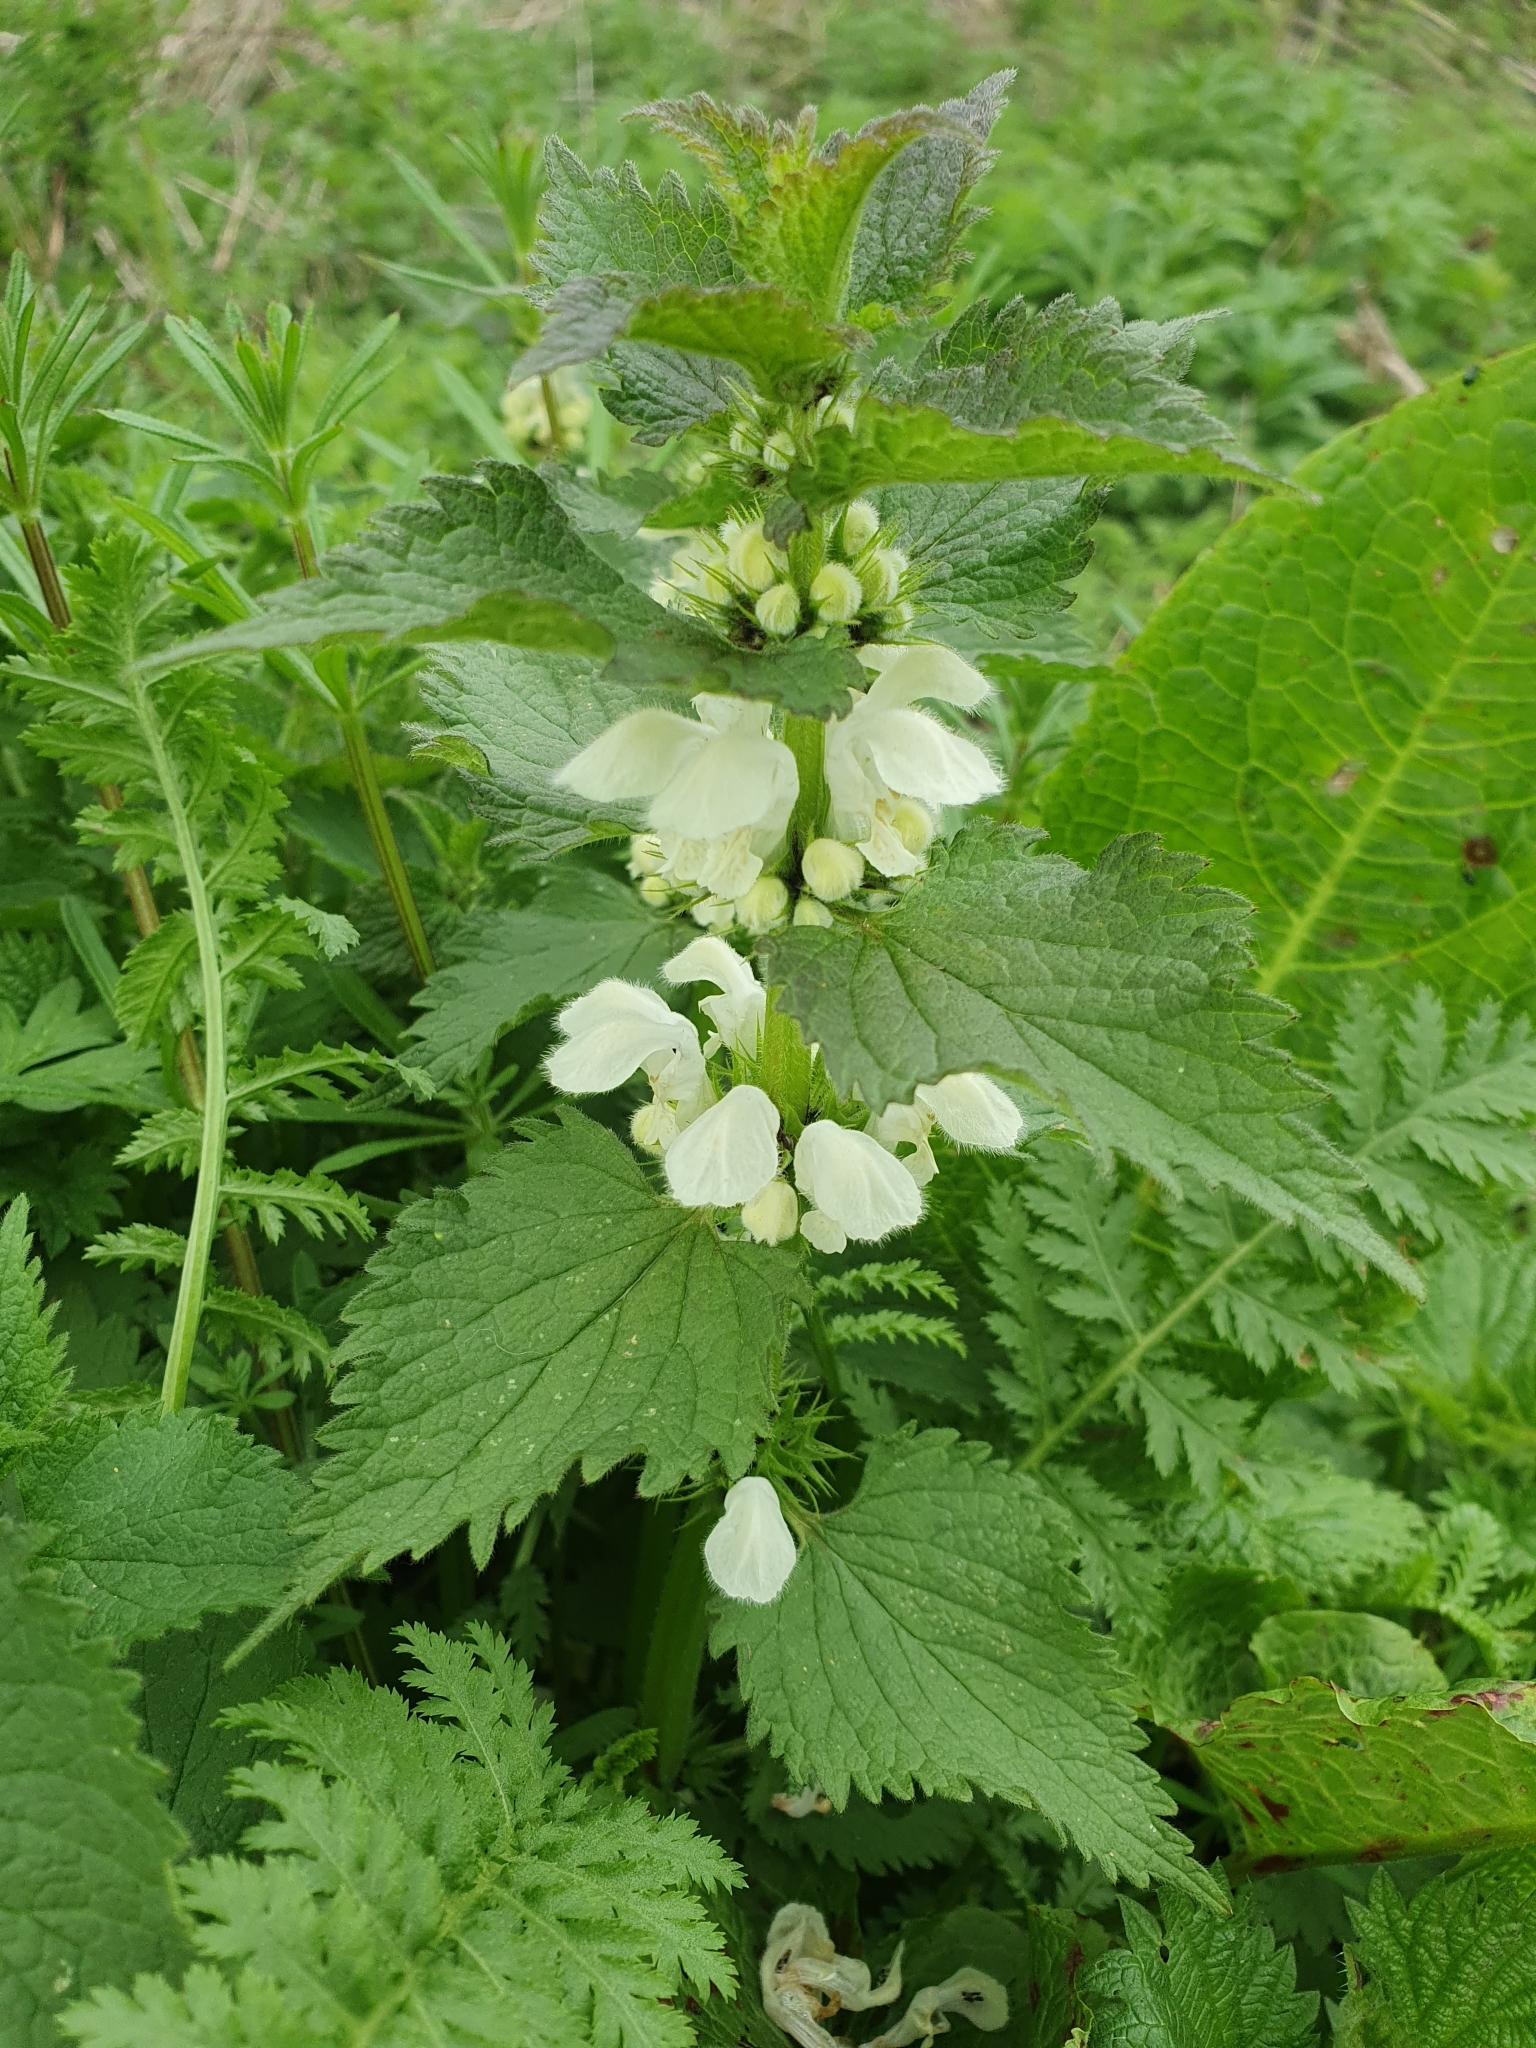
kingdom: Plantae
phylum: Tracheophyta
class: Magnoliopsida
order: Lamiales
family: Lamiaceae
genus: Lamium
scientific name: Lamium album
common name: White dead-nettle
